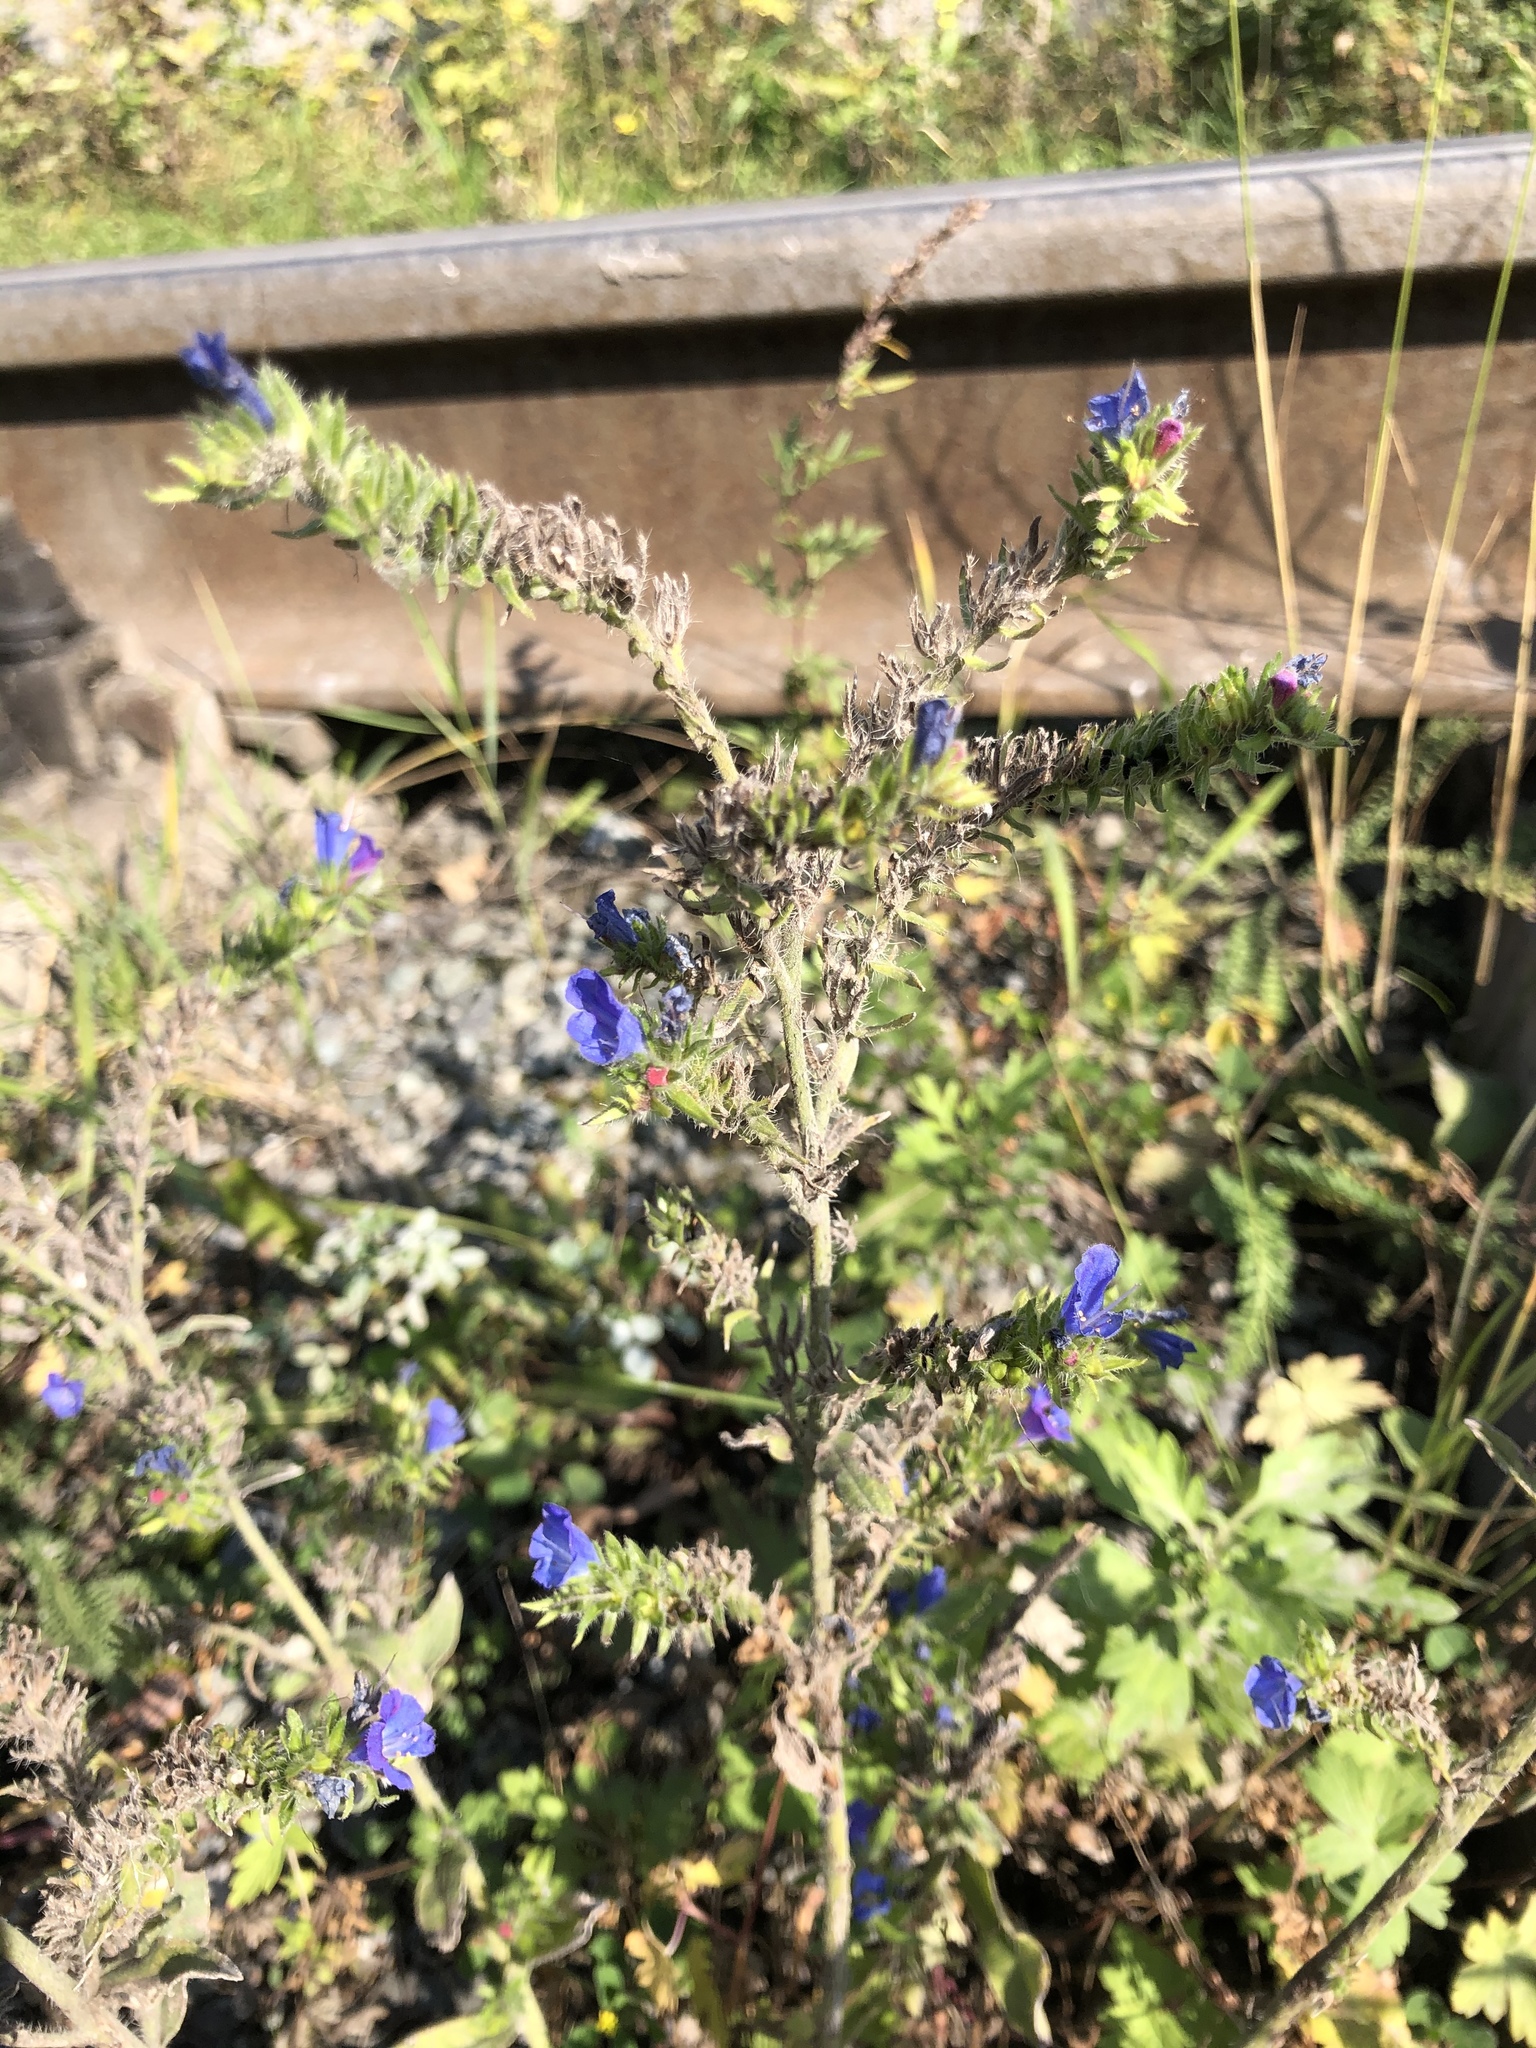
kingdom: Plantae
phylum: Tracheophyta
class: Magnoliopsida
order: Boraginales
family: Boraginaceae
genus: Echium
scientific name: Echium vulgare
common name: Common viper's bugloss
